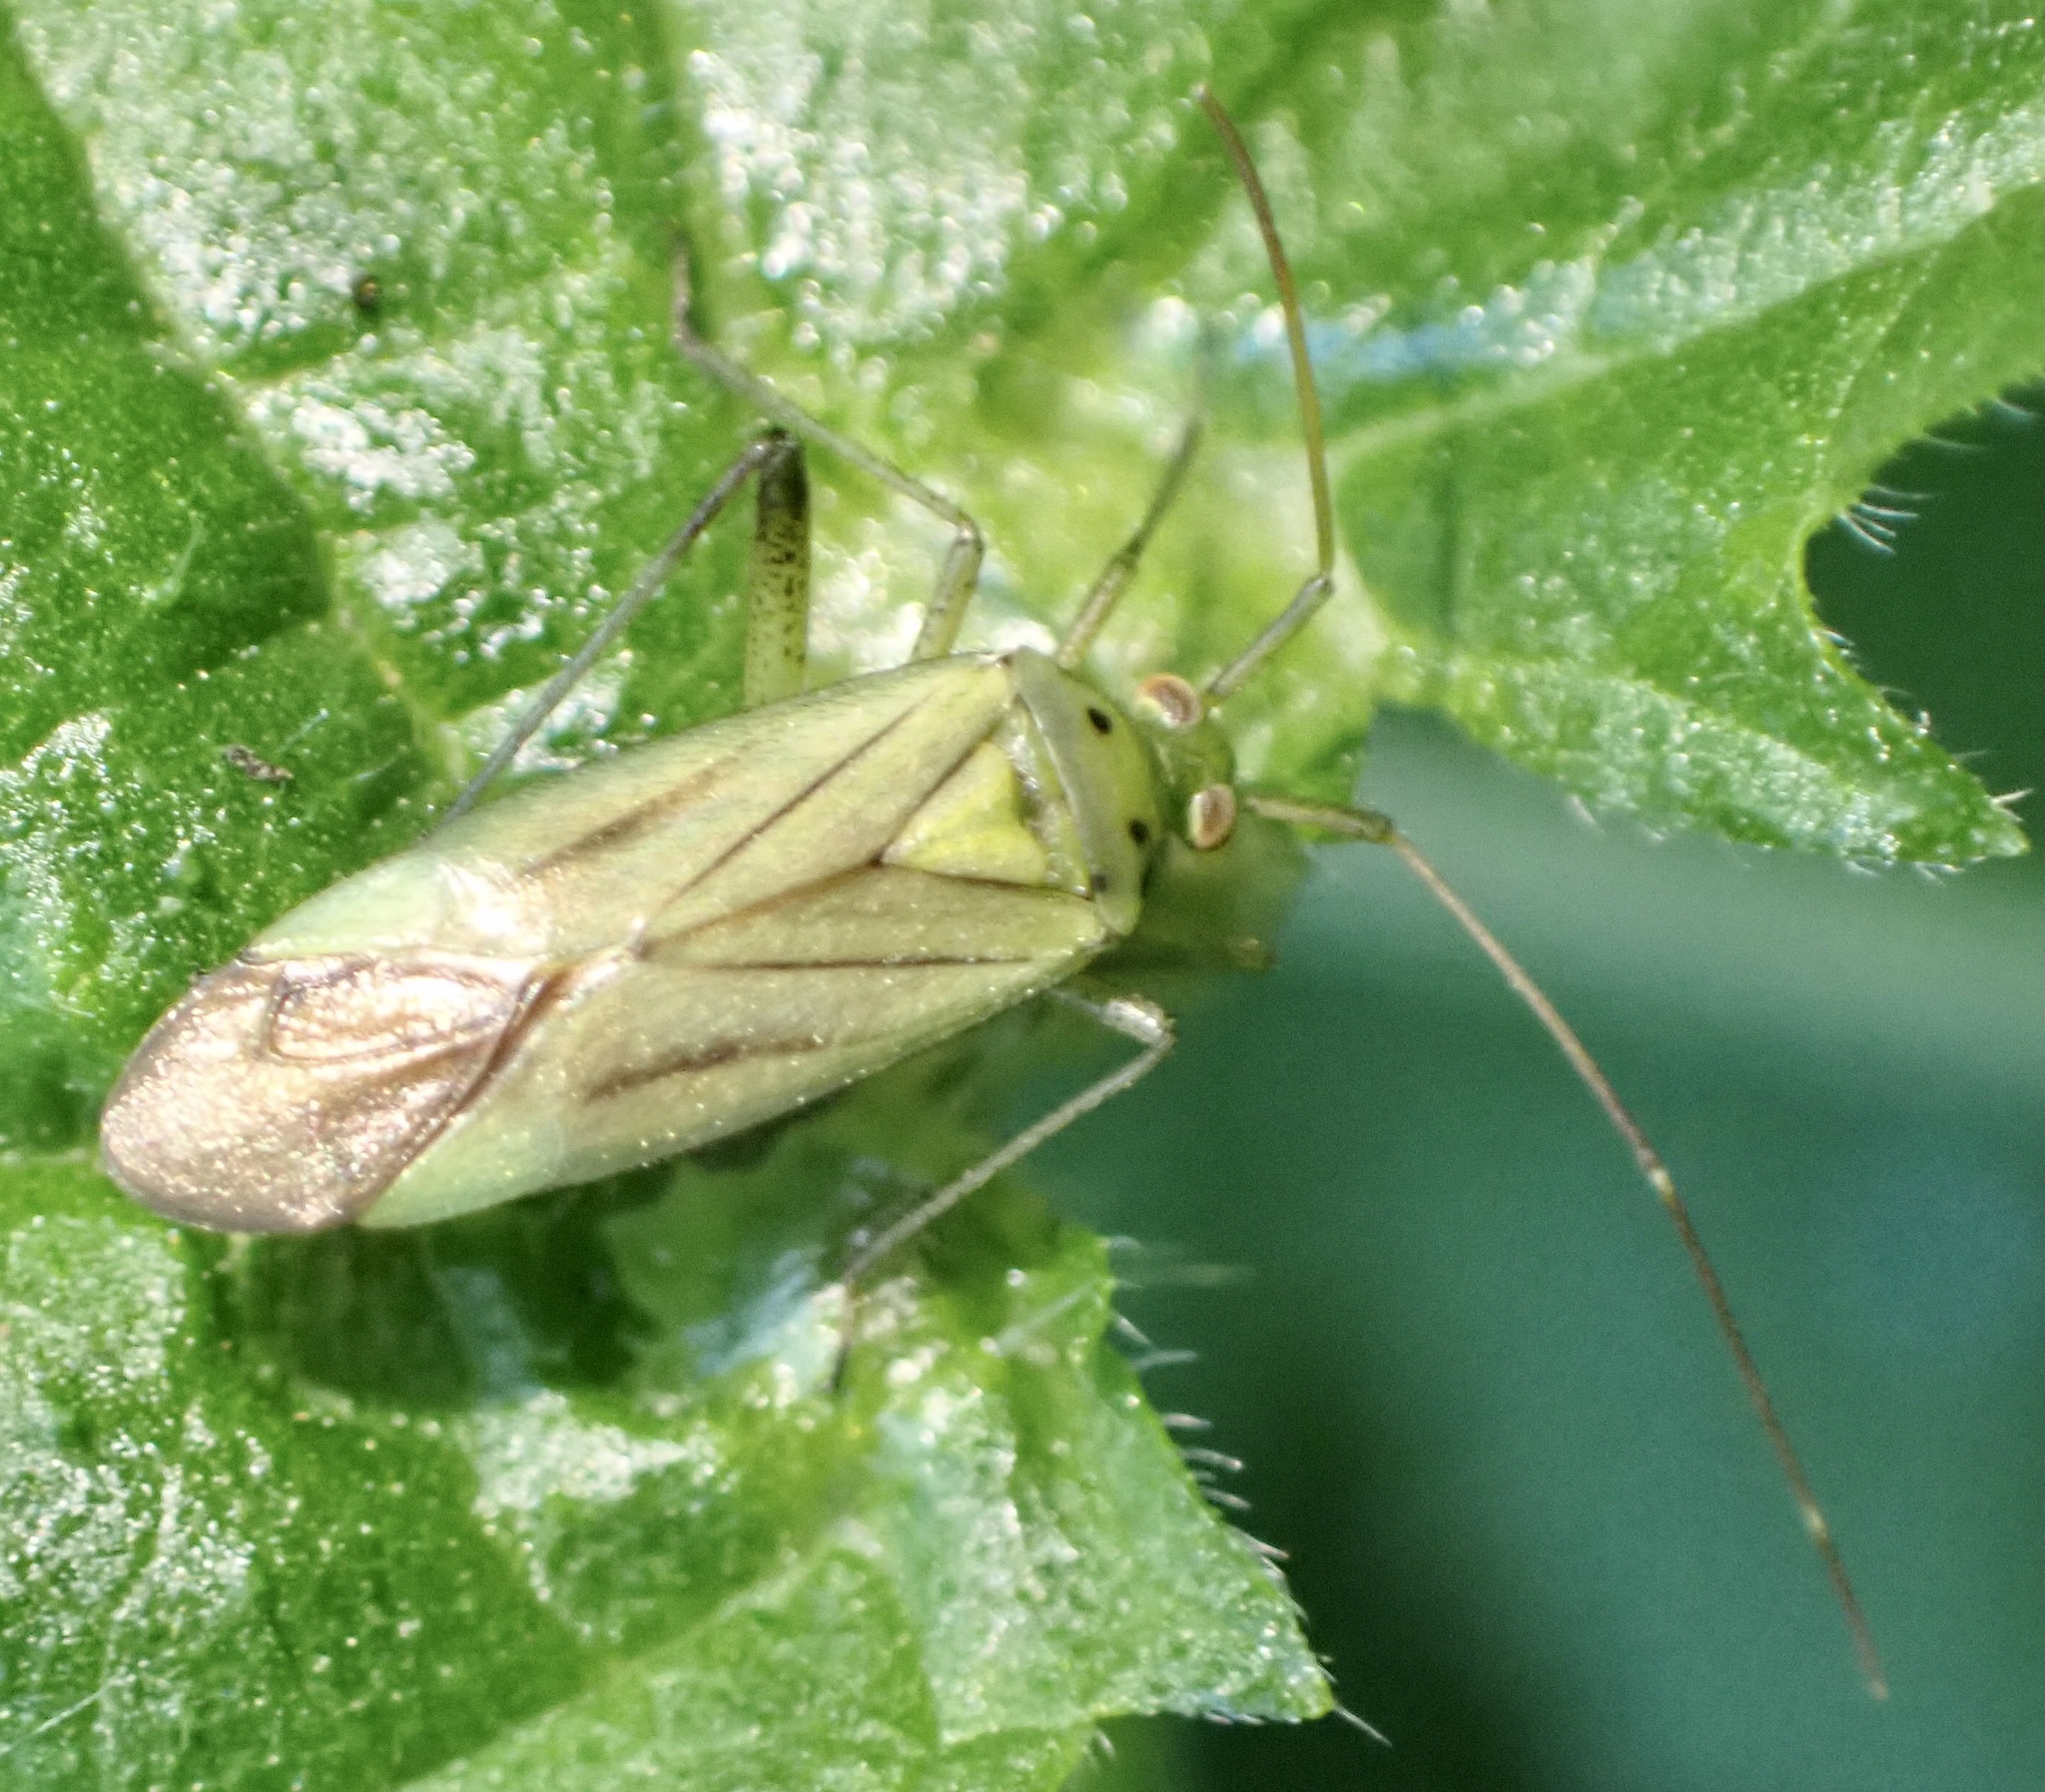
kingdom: Animalia
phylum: Arthropoda
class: Insecta
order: Hemiptera
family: Miridae
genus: Adelphocoris
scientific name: Adelphocoris quadripunctatus
